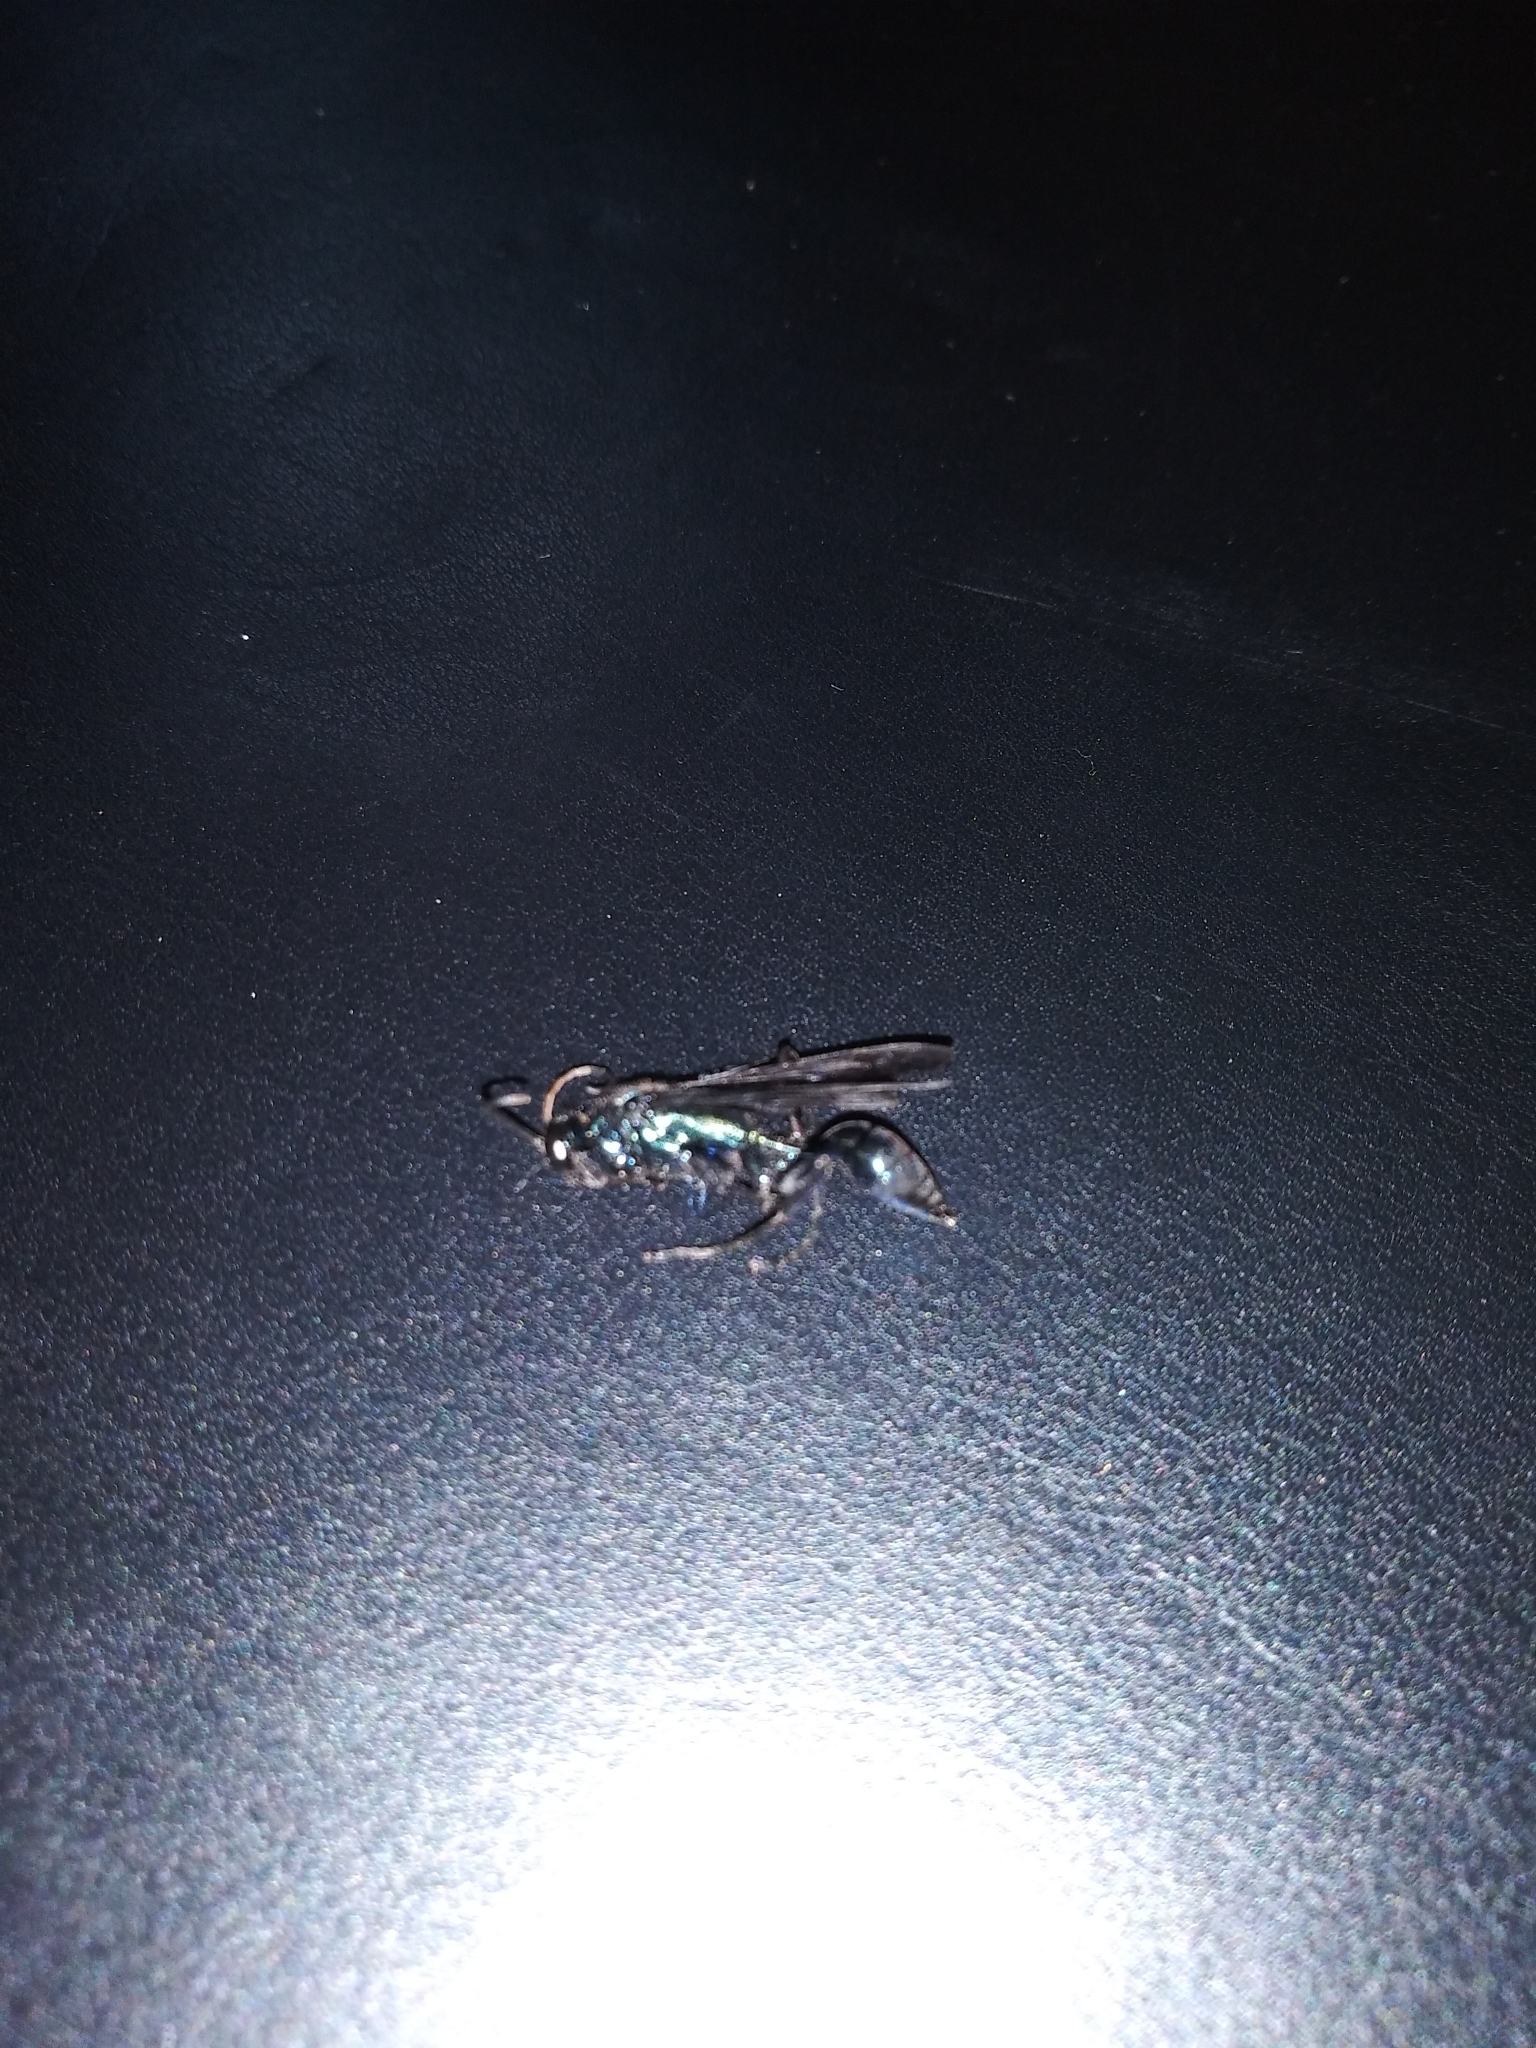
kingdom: Animalia
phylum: Arthropoda
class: Insecta
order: Hymenoptera
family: Sphecidae
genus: Chalybion
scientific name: Chalybion californicum
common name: Mud dauber
